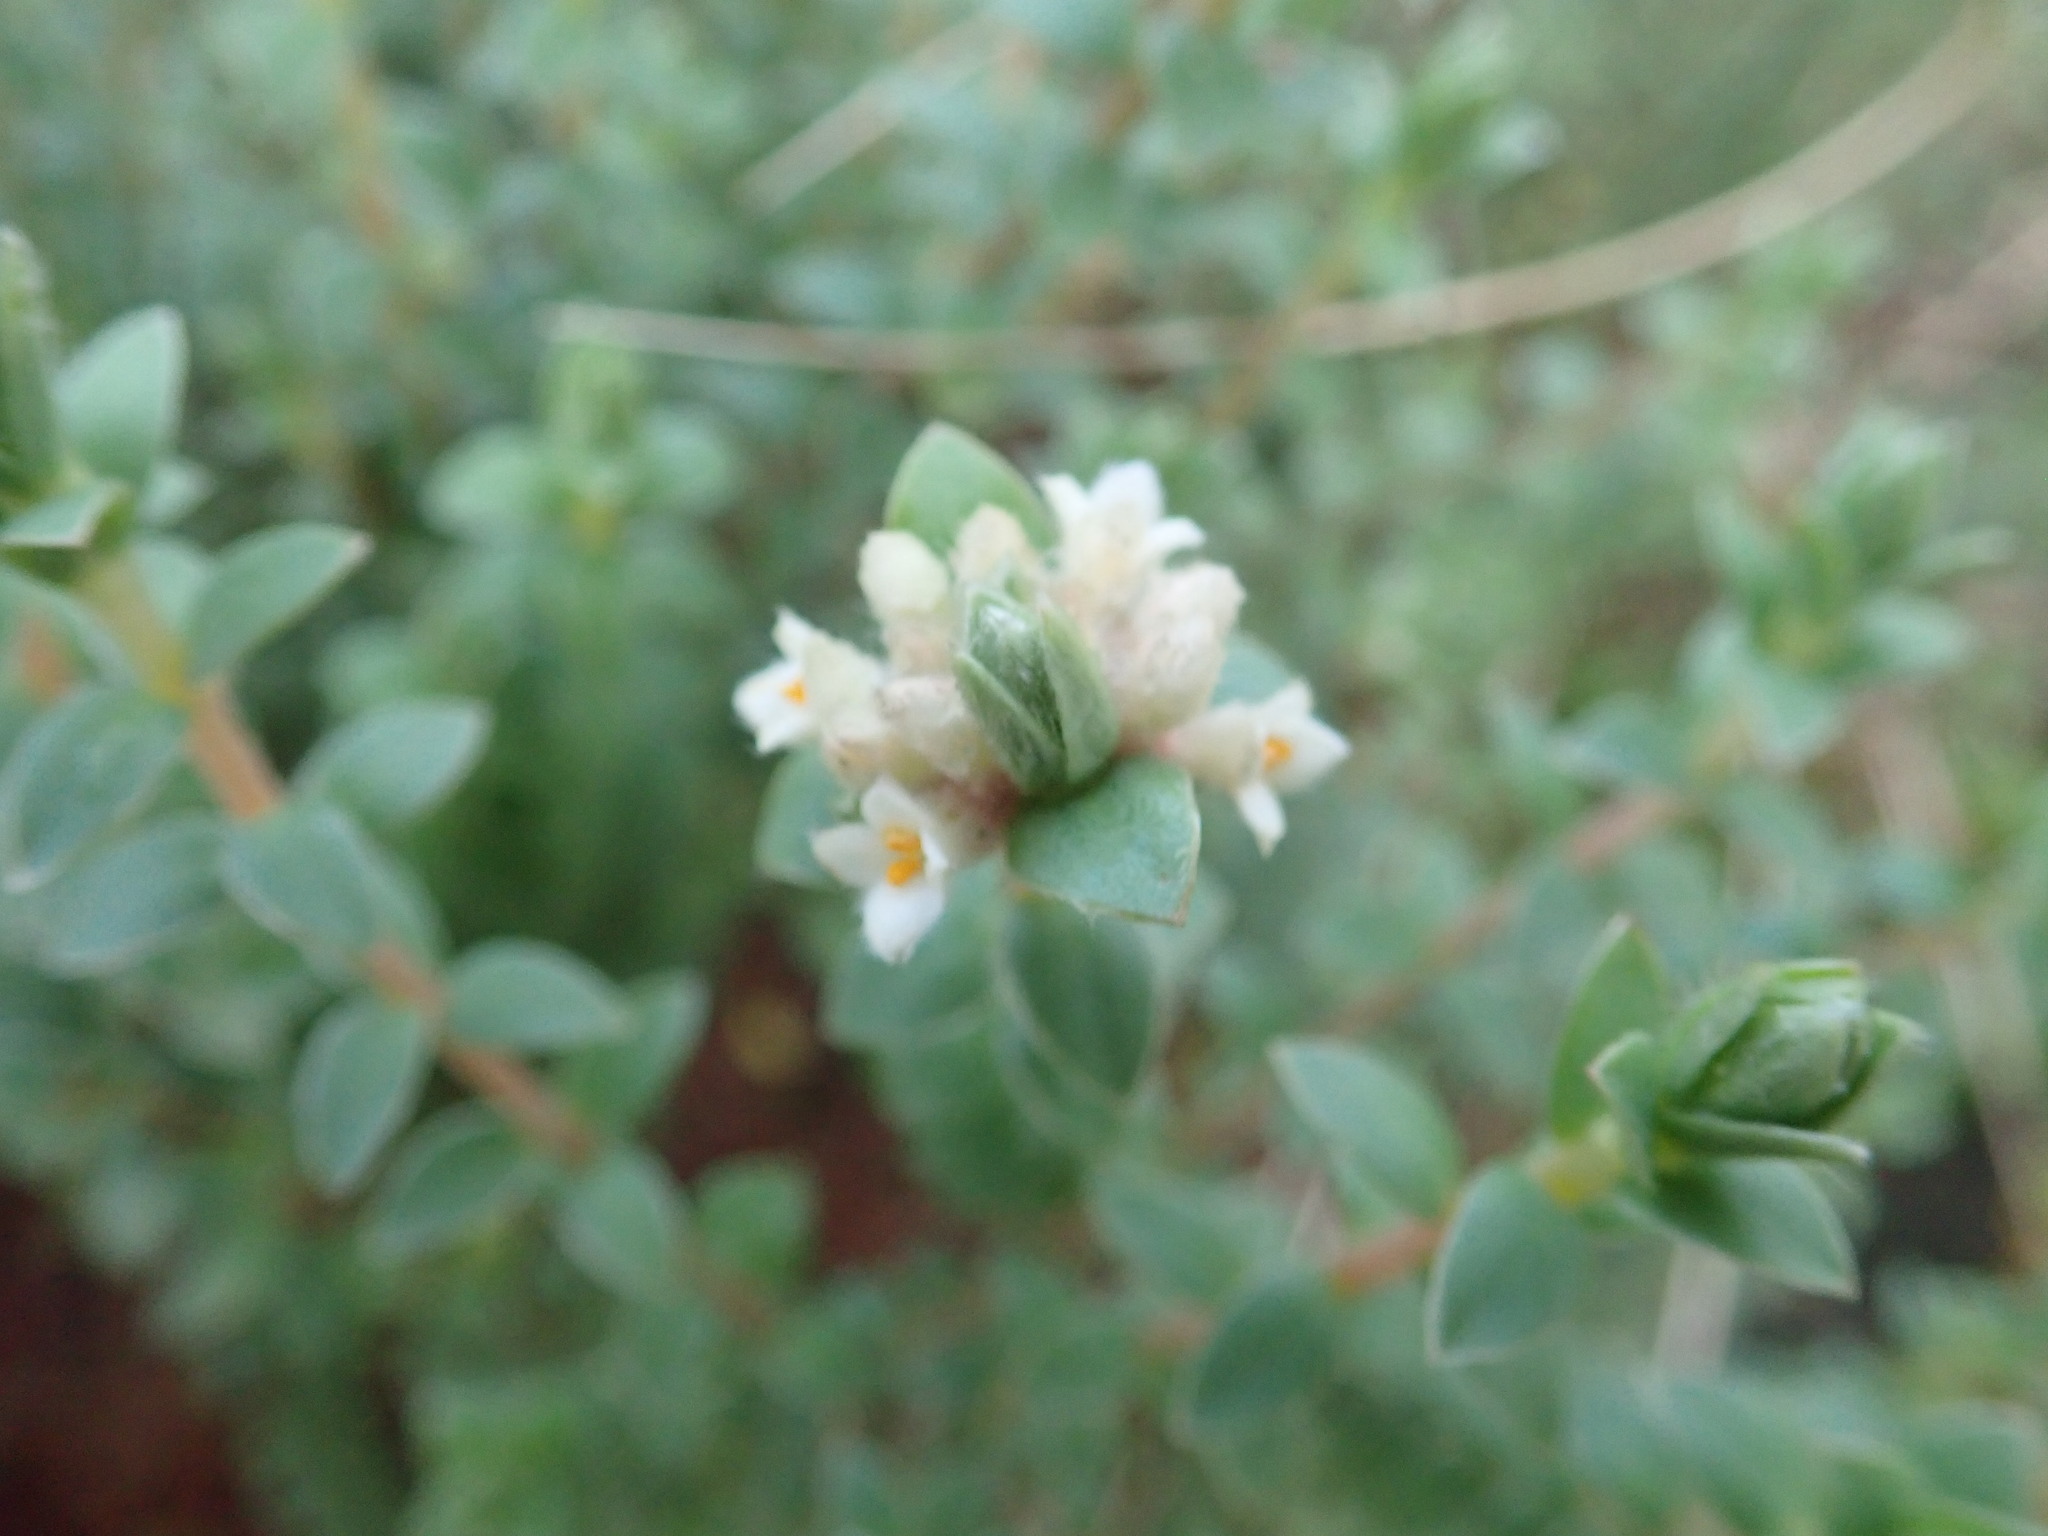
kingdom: Plantae
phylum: Tracheophyta
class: Magnoliopsida
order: Malvales
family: Thymelaeaceae
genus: Pimelea
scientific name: Pimelea villosa
